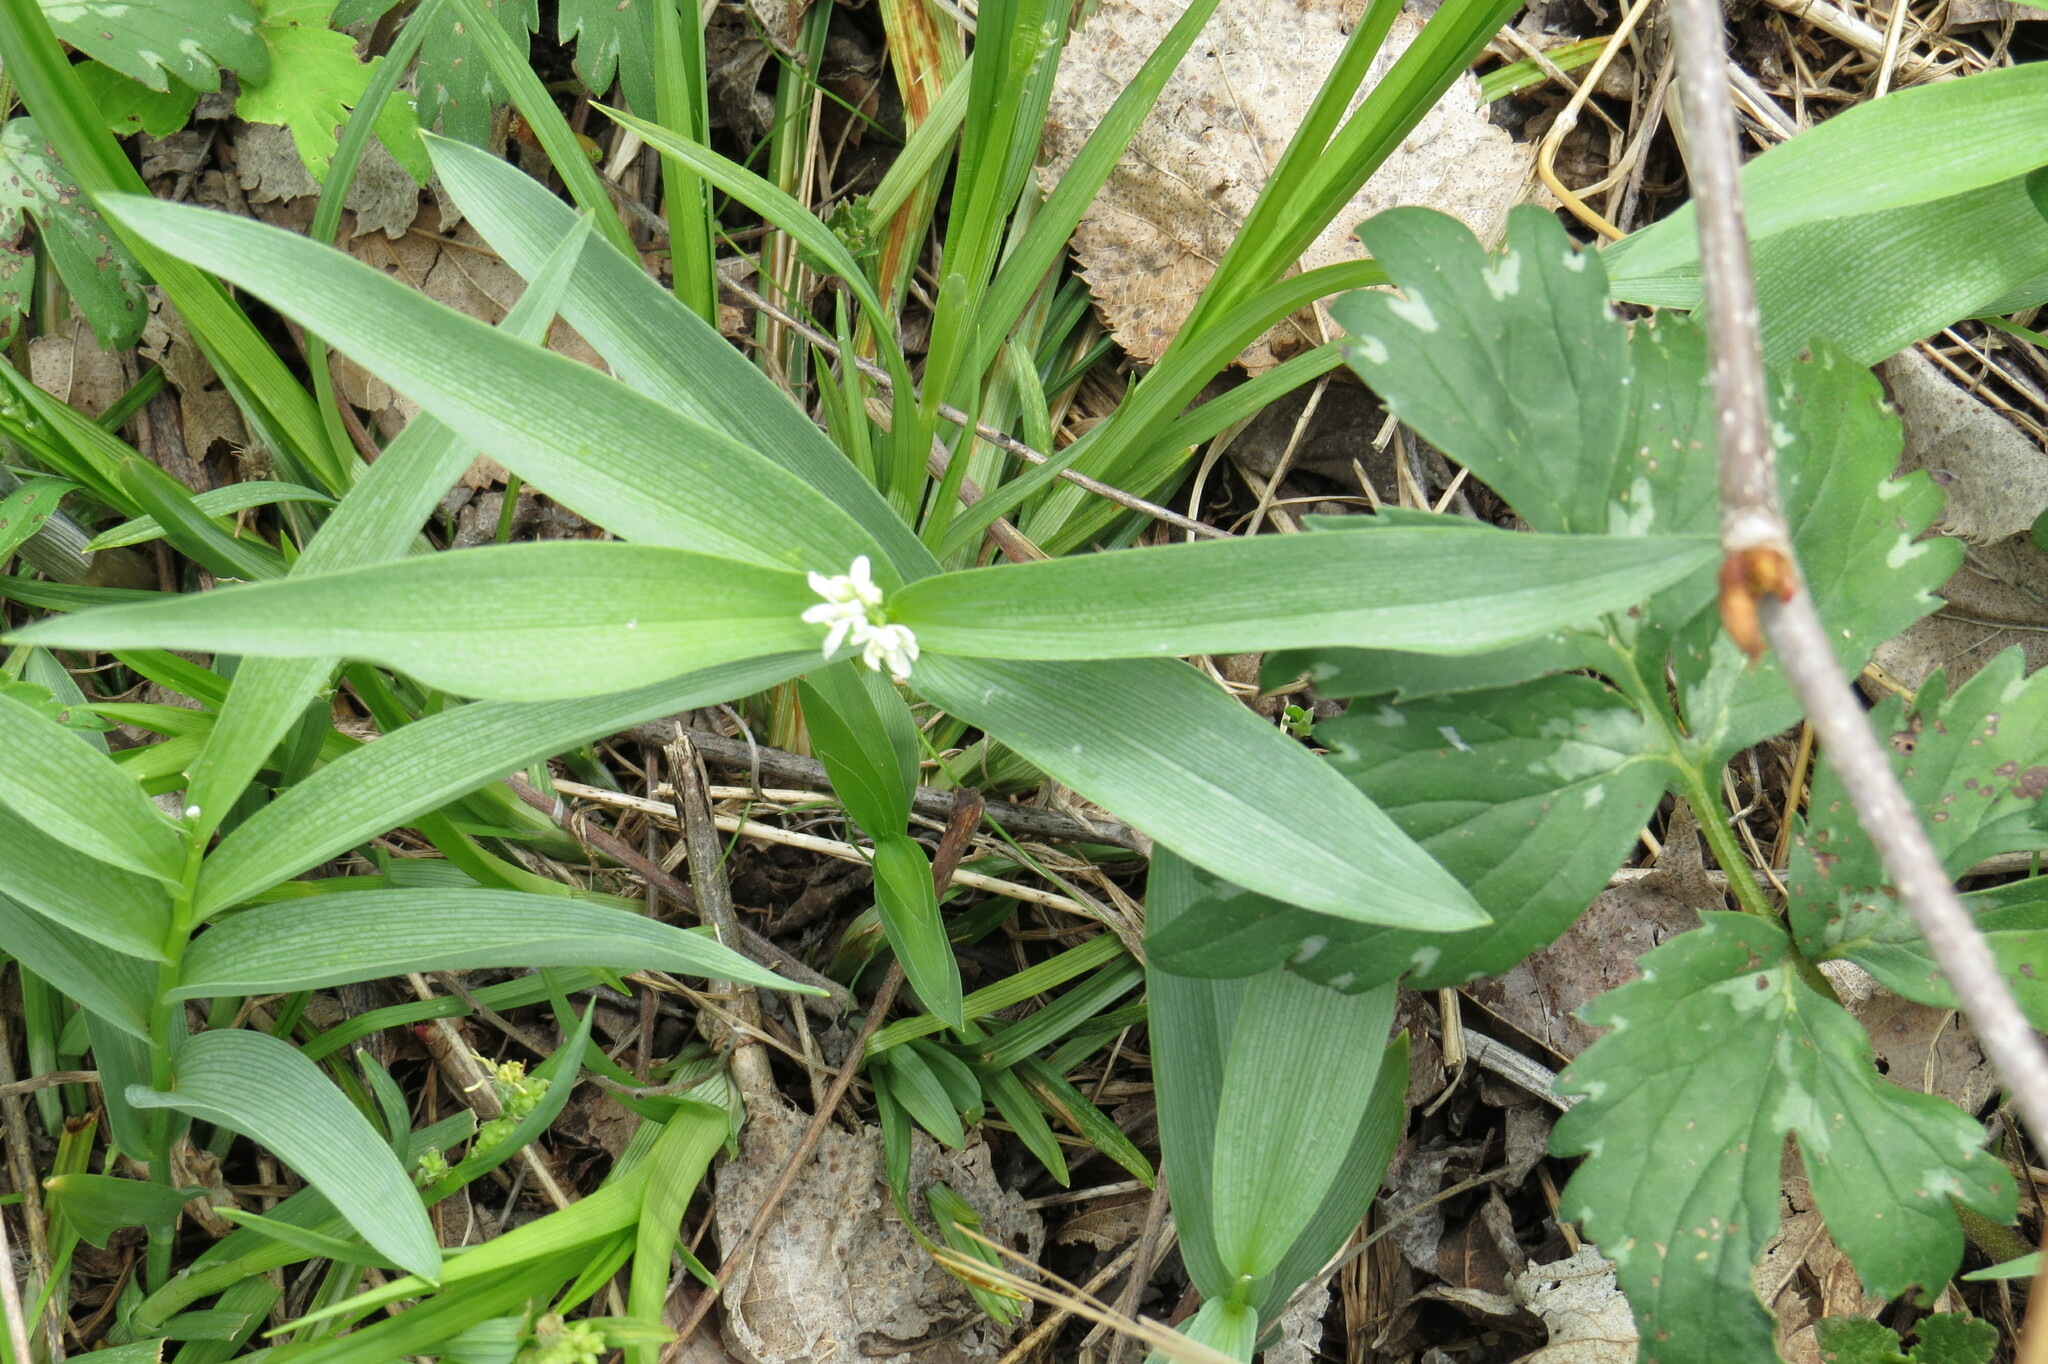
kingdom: Plantae
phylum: Tracheophyta
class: Liliopsida
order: Asparagales
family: Asparagaceae
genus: Maianthemum
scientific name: Maianthemum stellatum
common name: Little false solomon's seal
